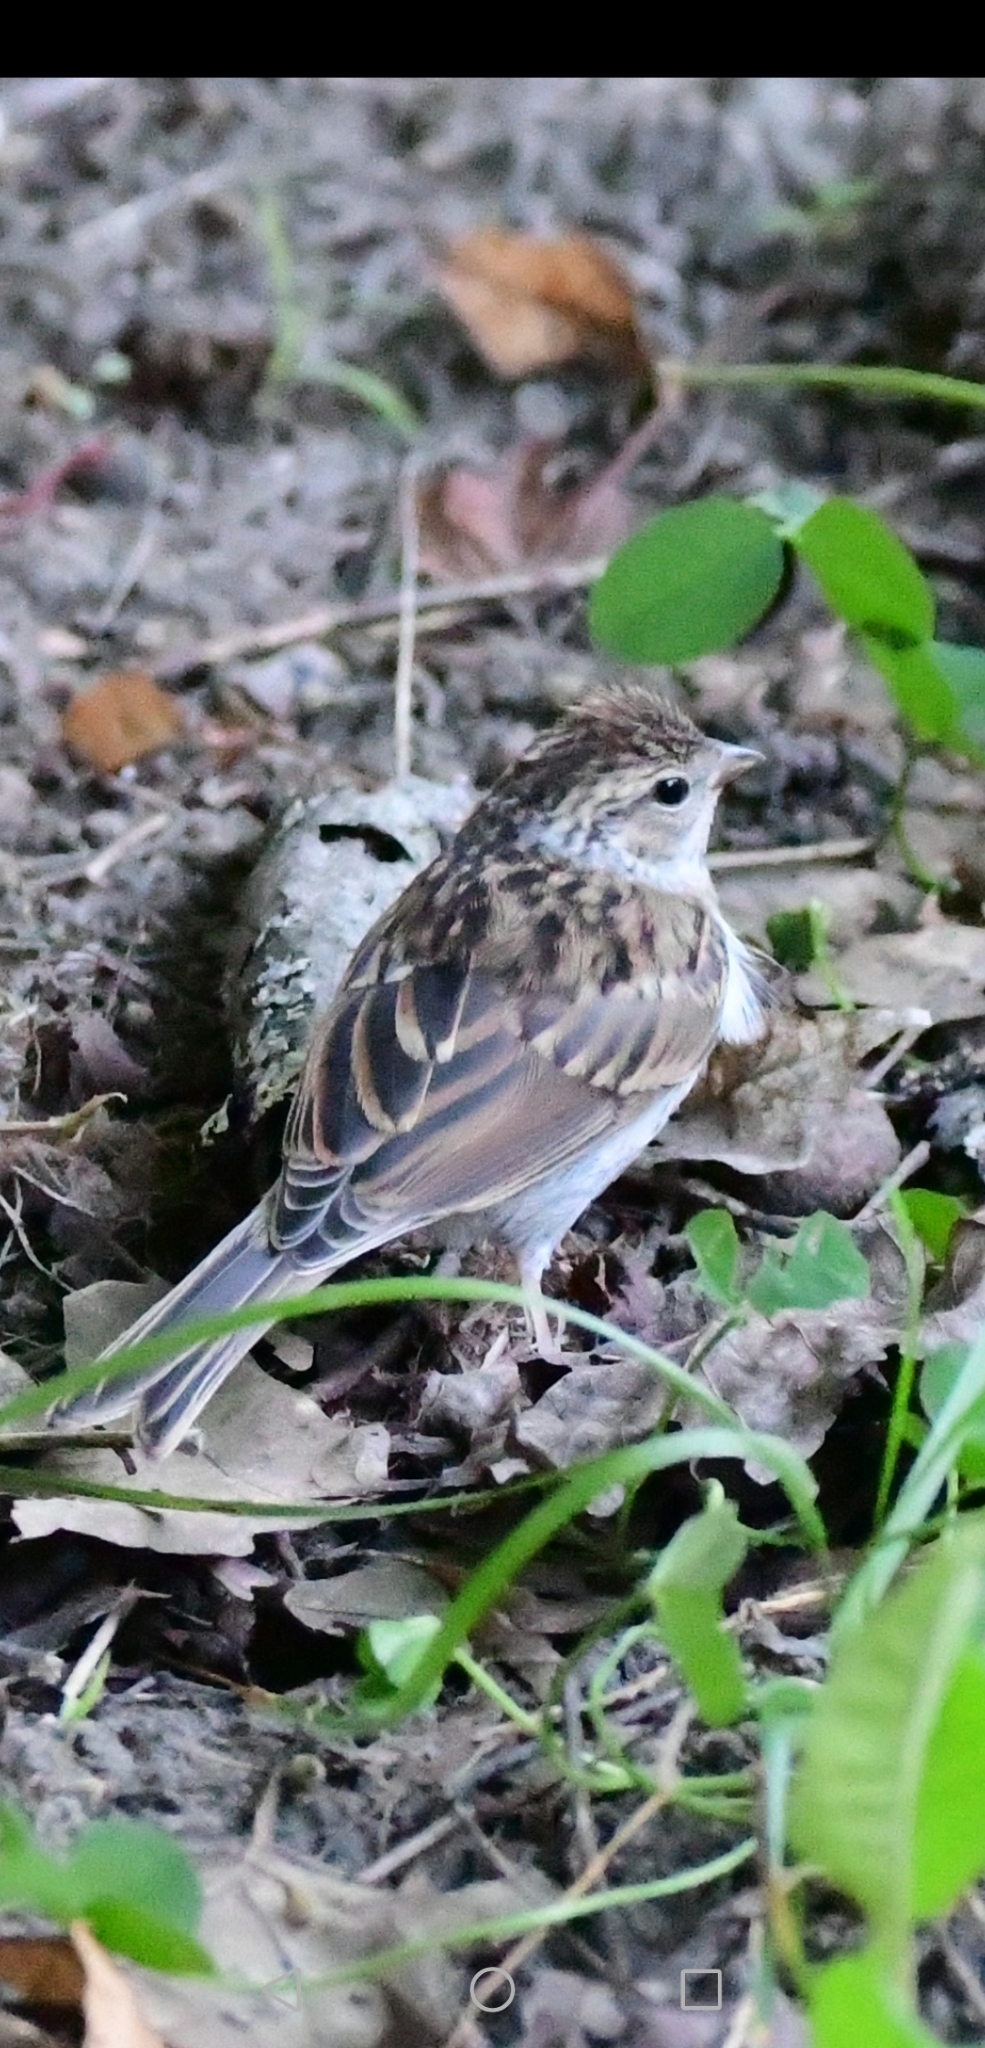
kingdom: Animalia
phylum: Chordata
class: Aves
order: Passeriformes
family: Passerellidae
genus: Spizella
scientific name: Spizella passerina
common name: Chipping sparrow
